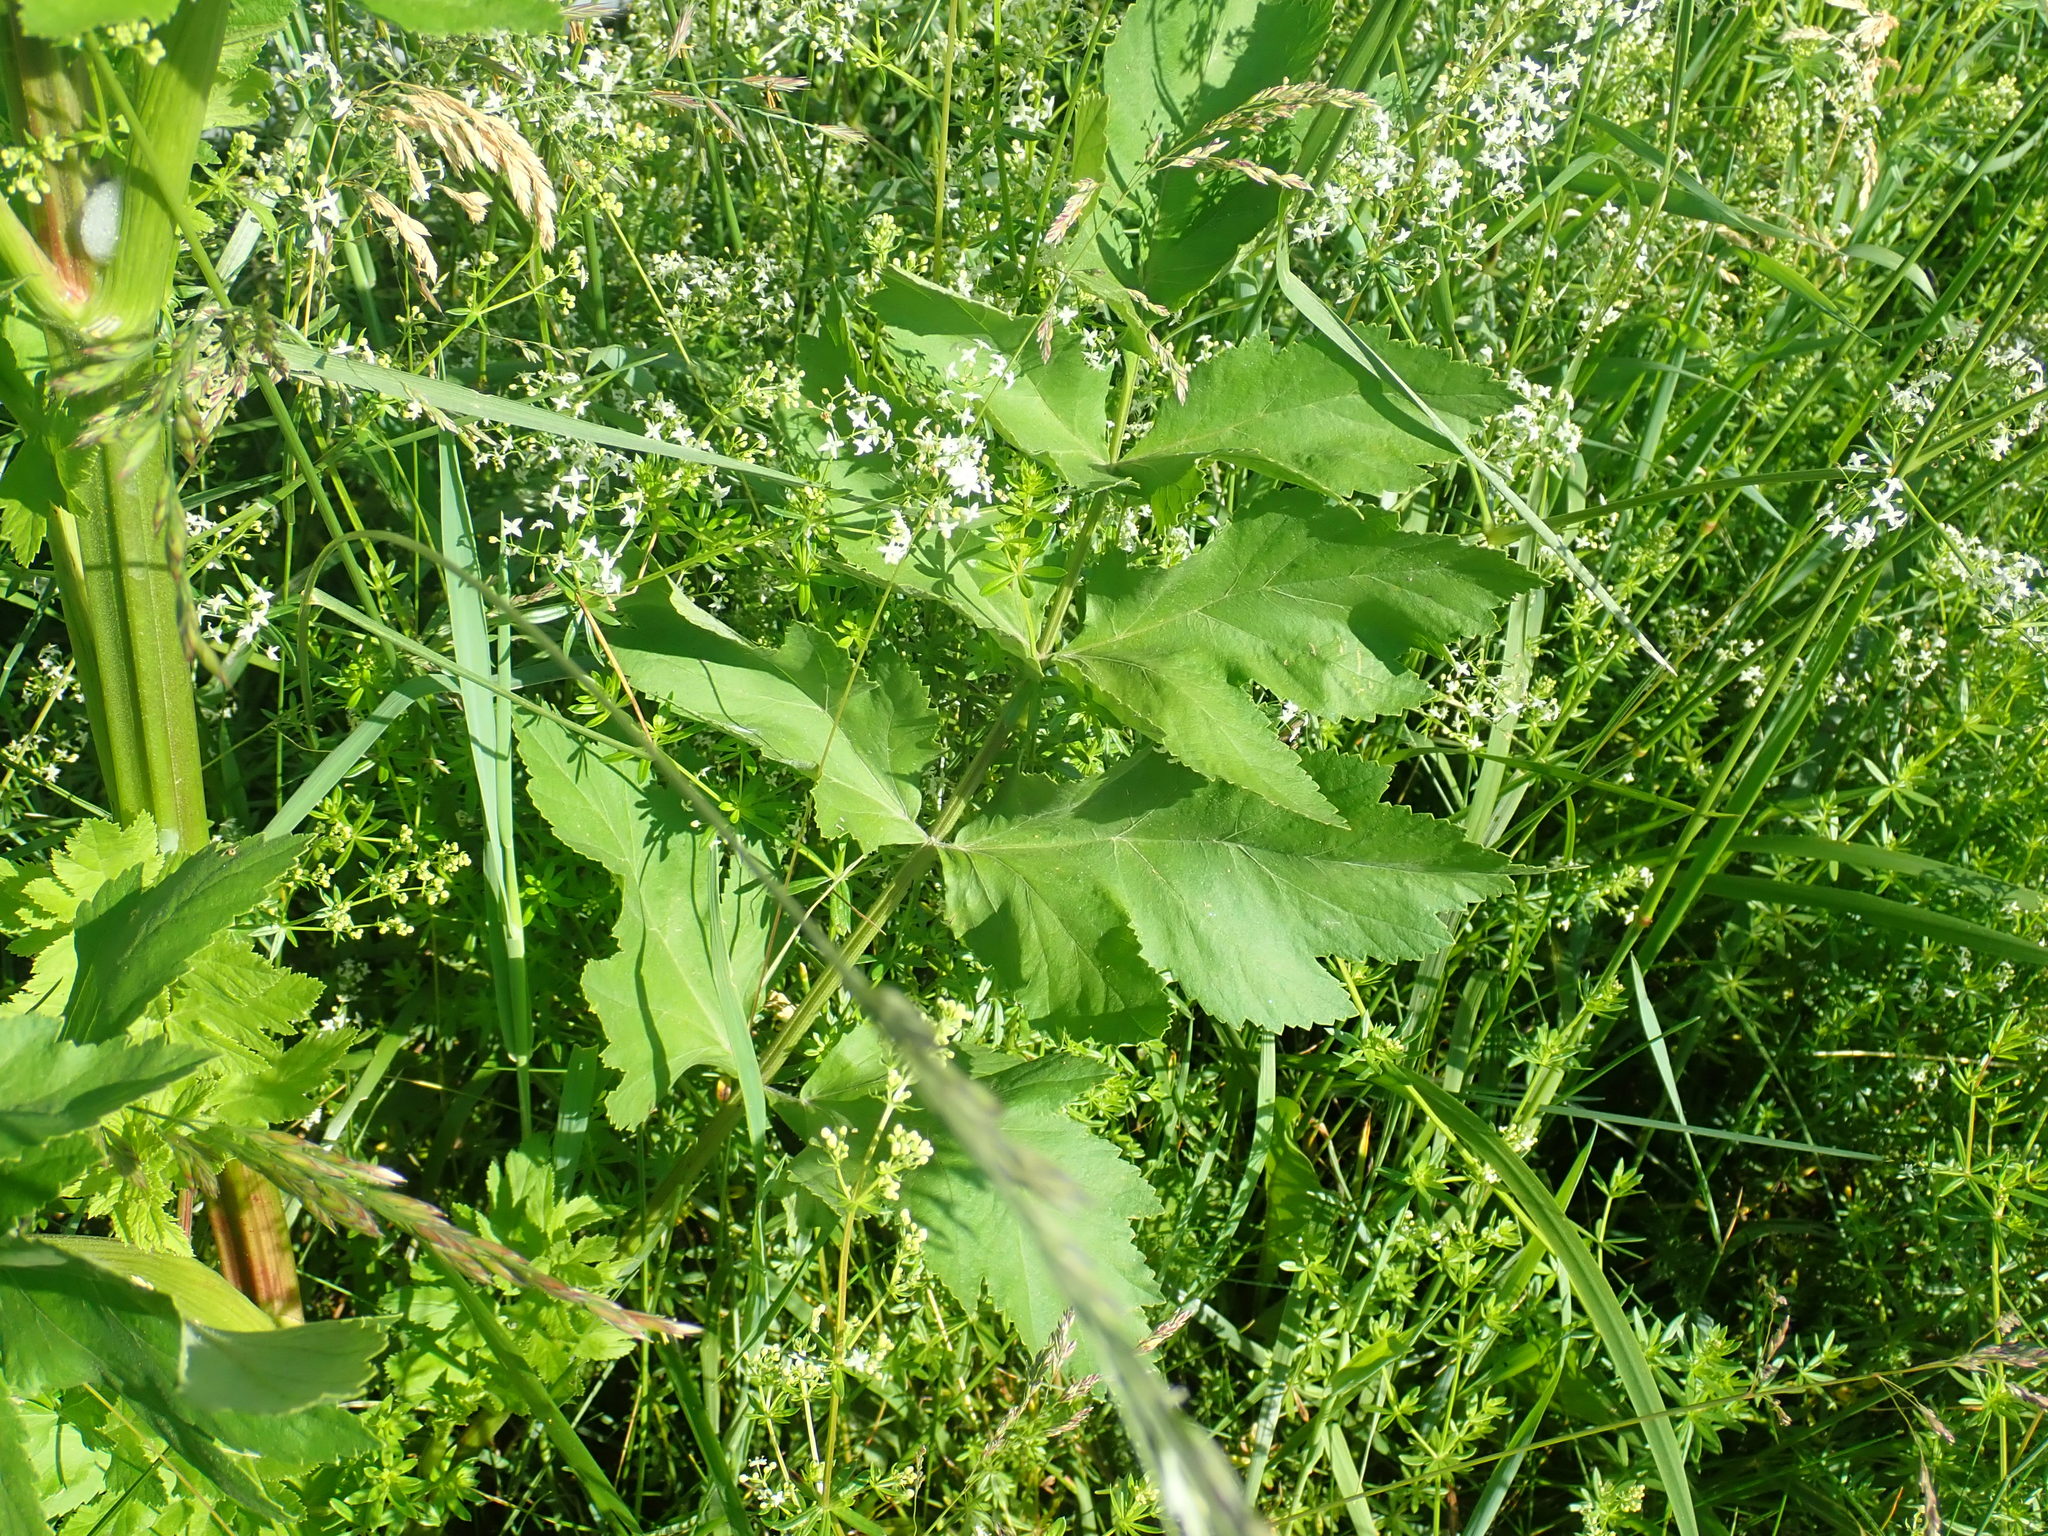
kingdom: Plantae
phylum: Tracheophyta
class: Magnoliopsida
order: Apiales
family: Apiaceae
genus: Pastinaca
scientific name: Pastinaca sativa
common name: Wild parsnip
